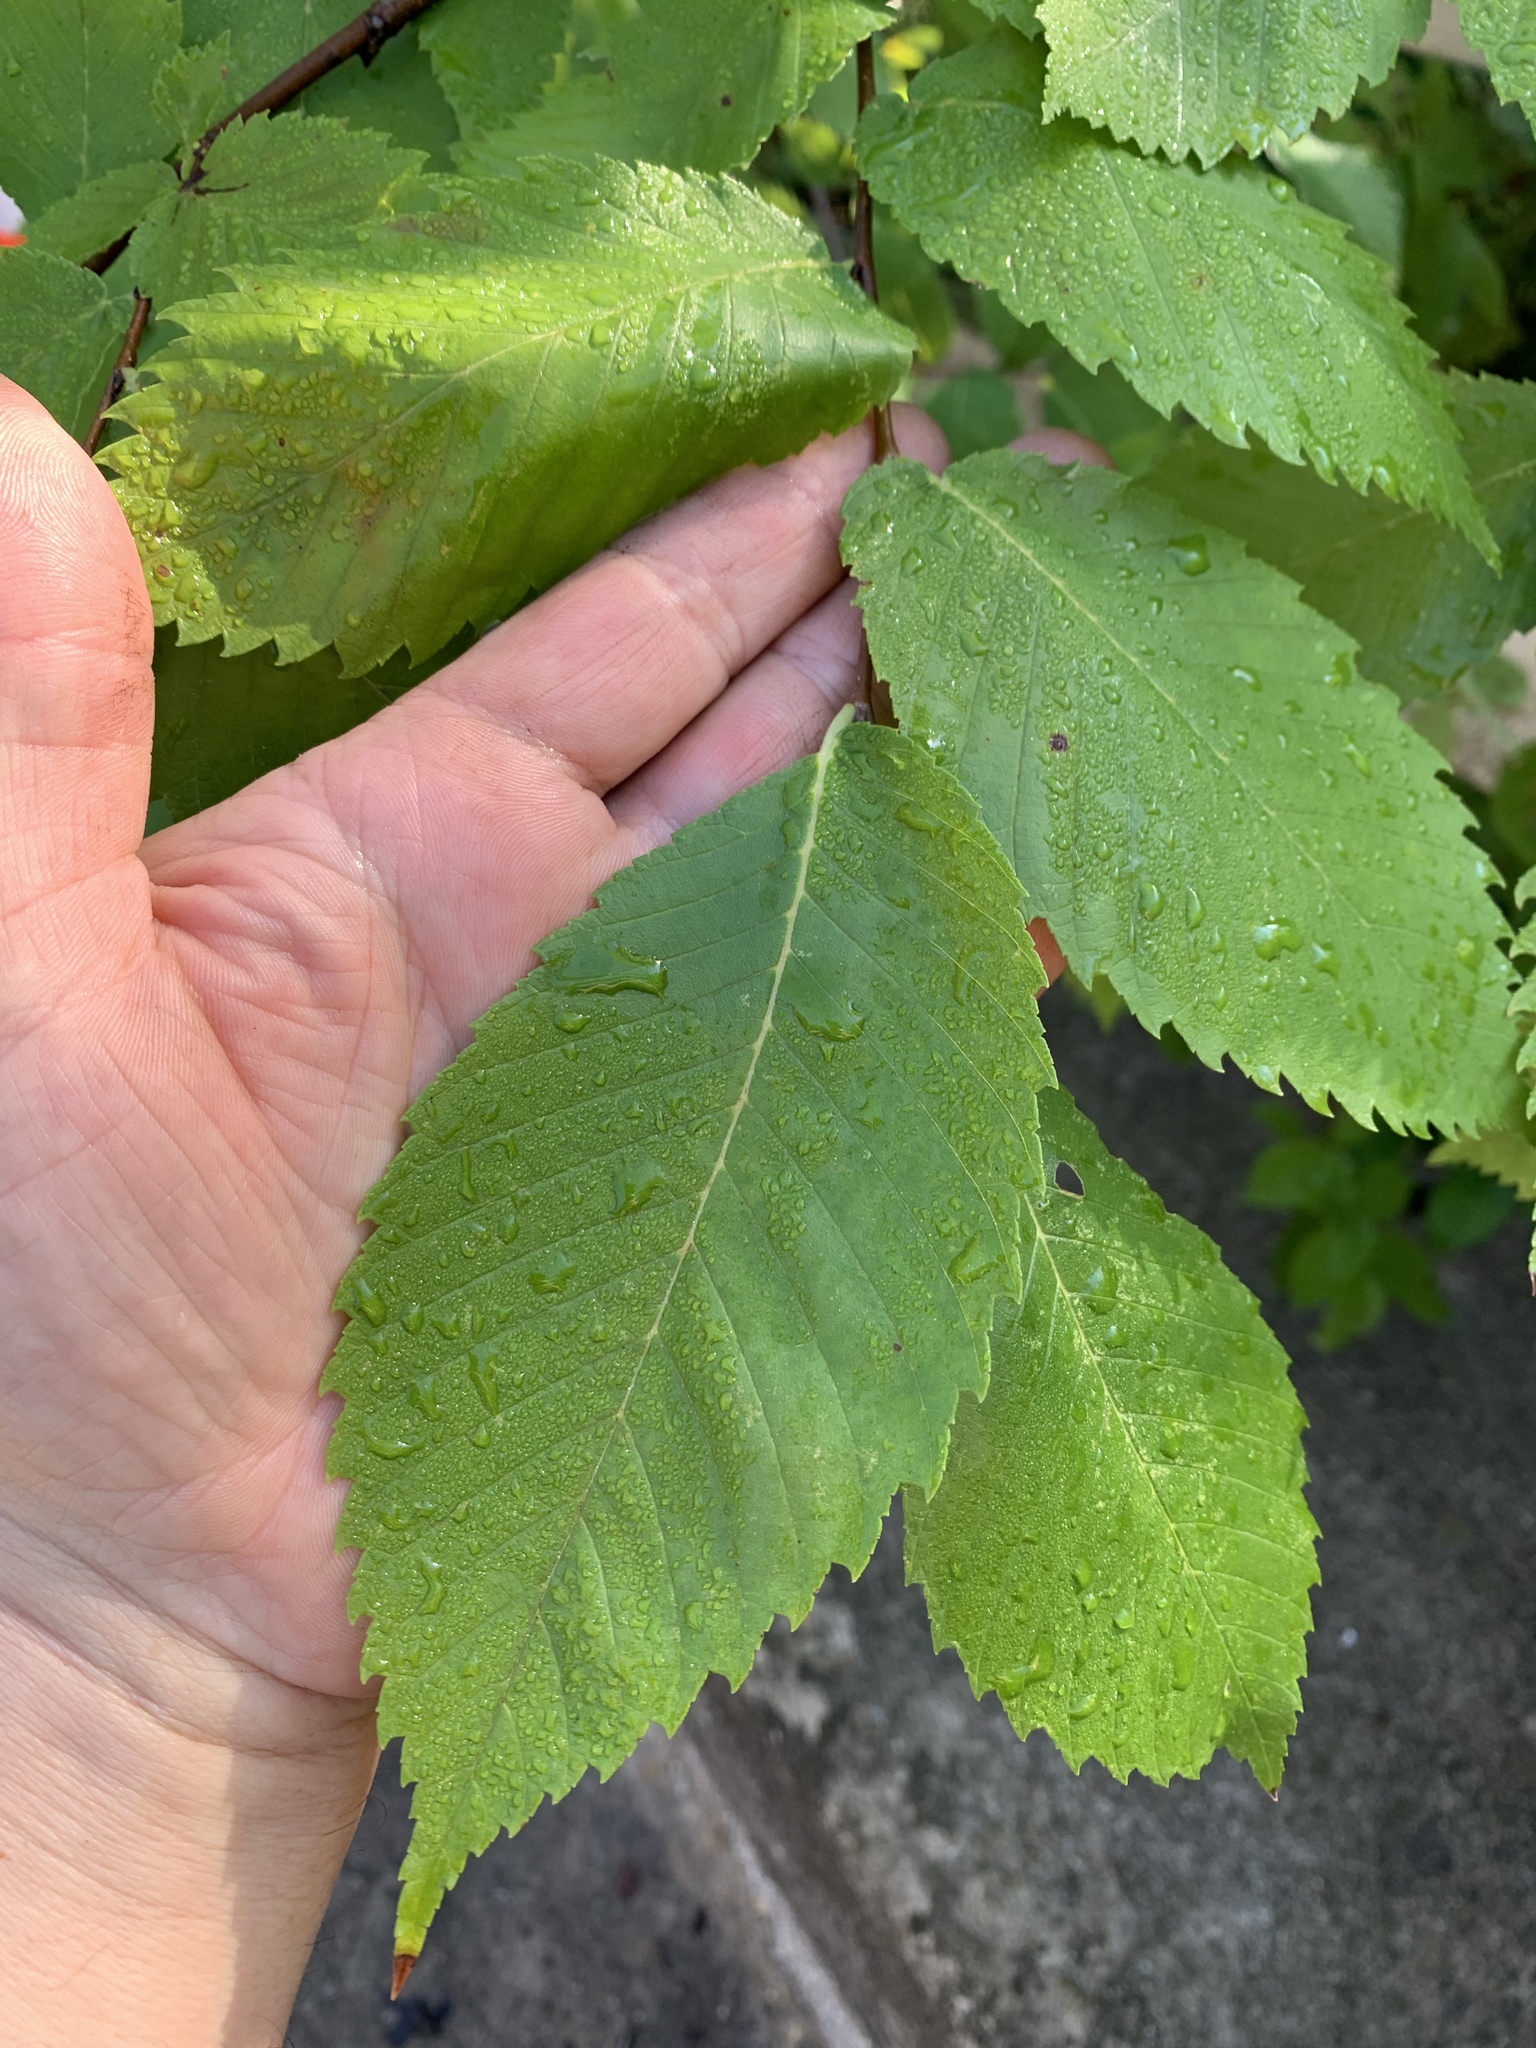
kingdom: Plantae
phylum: Tracheophyta
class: Magnoliopsida
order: Rosales
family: Ulmaceae
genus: Ulmus
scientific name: Ulmus americana
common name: American elm
